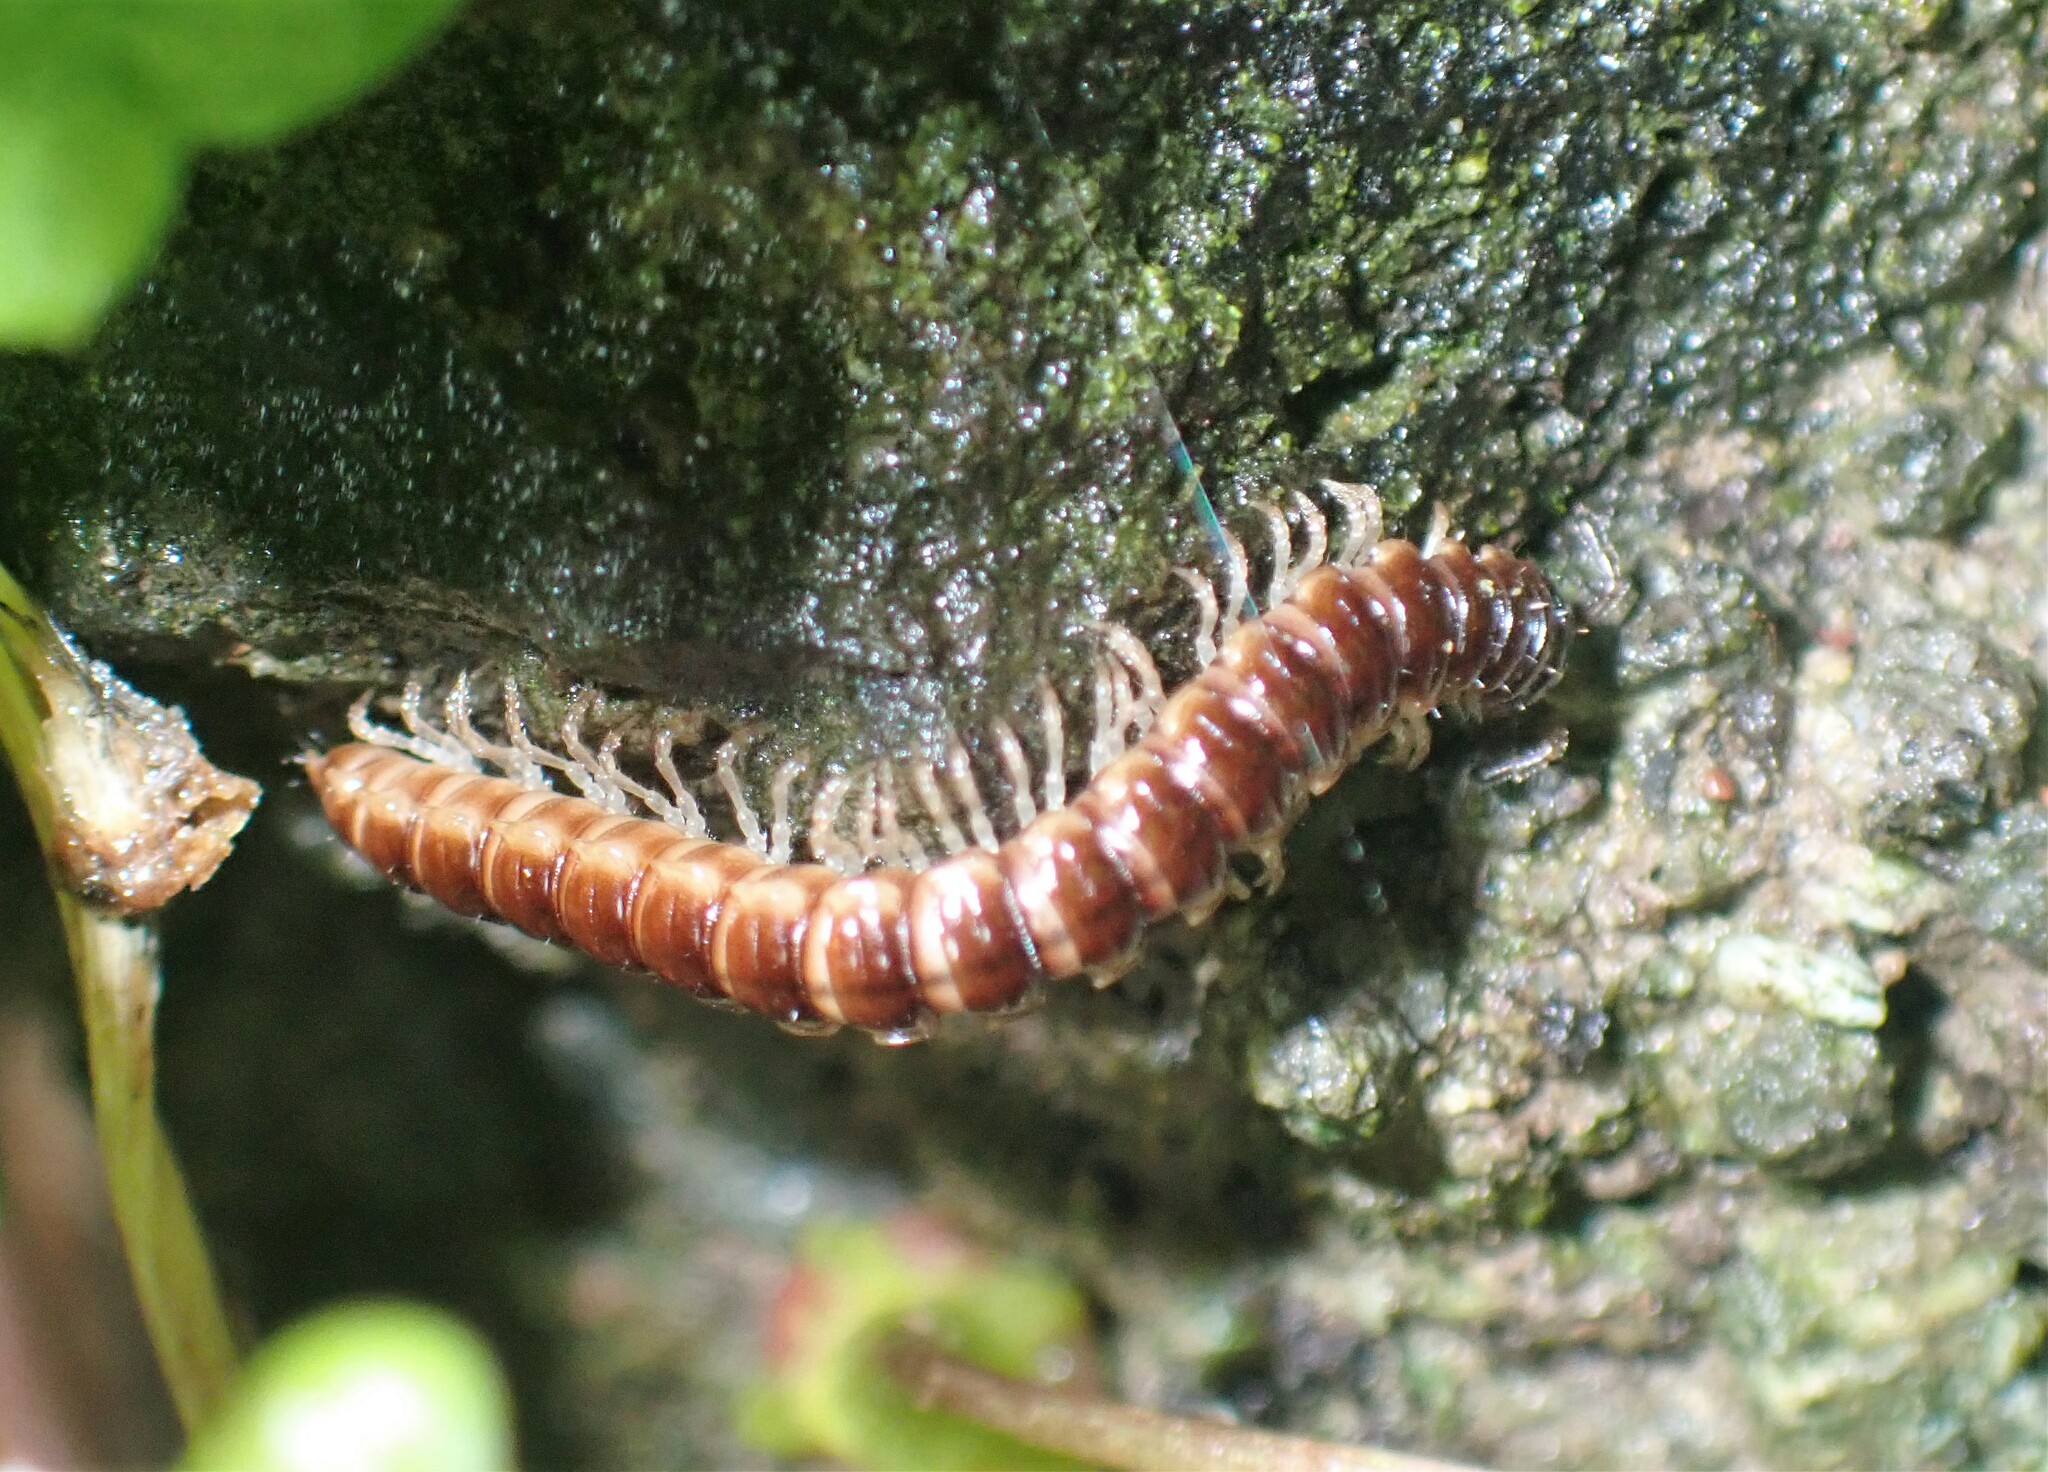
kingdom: Animalia
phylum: Arthropoda
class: Diplopoda
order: Polydesmida
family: Paradoxosomatidae
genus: Oxidus
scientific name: Oxidus gracilis
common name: Greenhouse millipede
